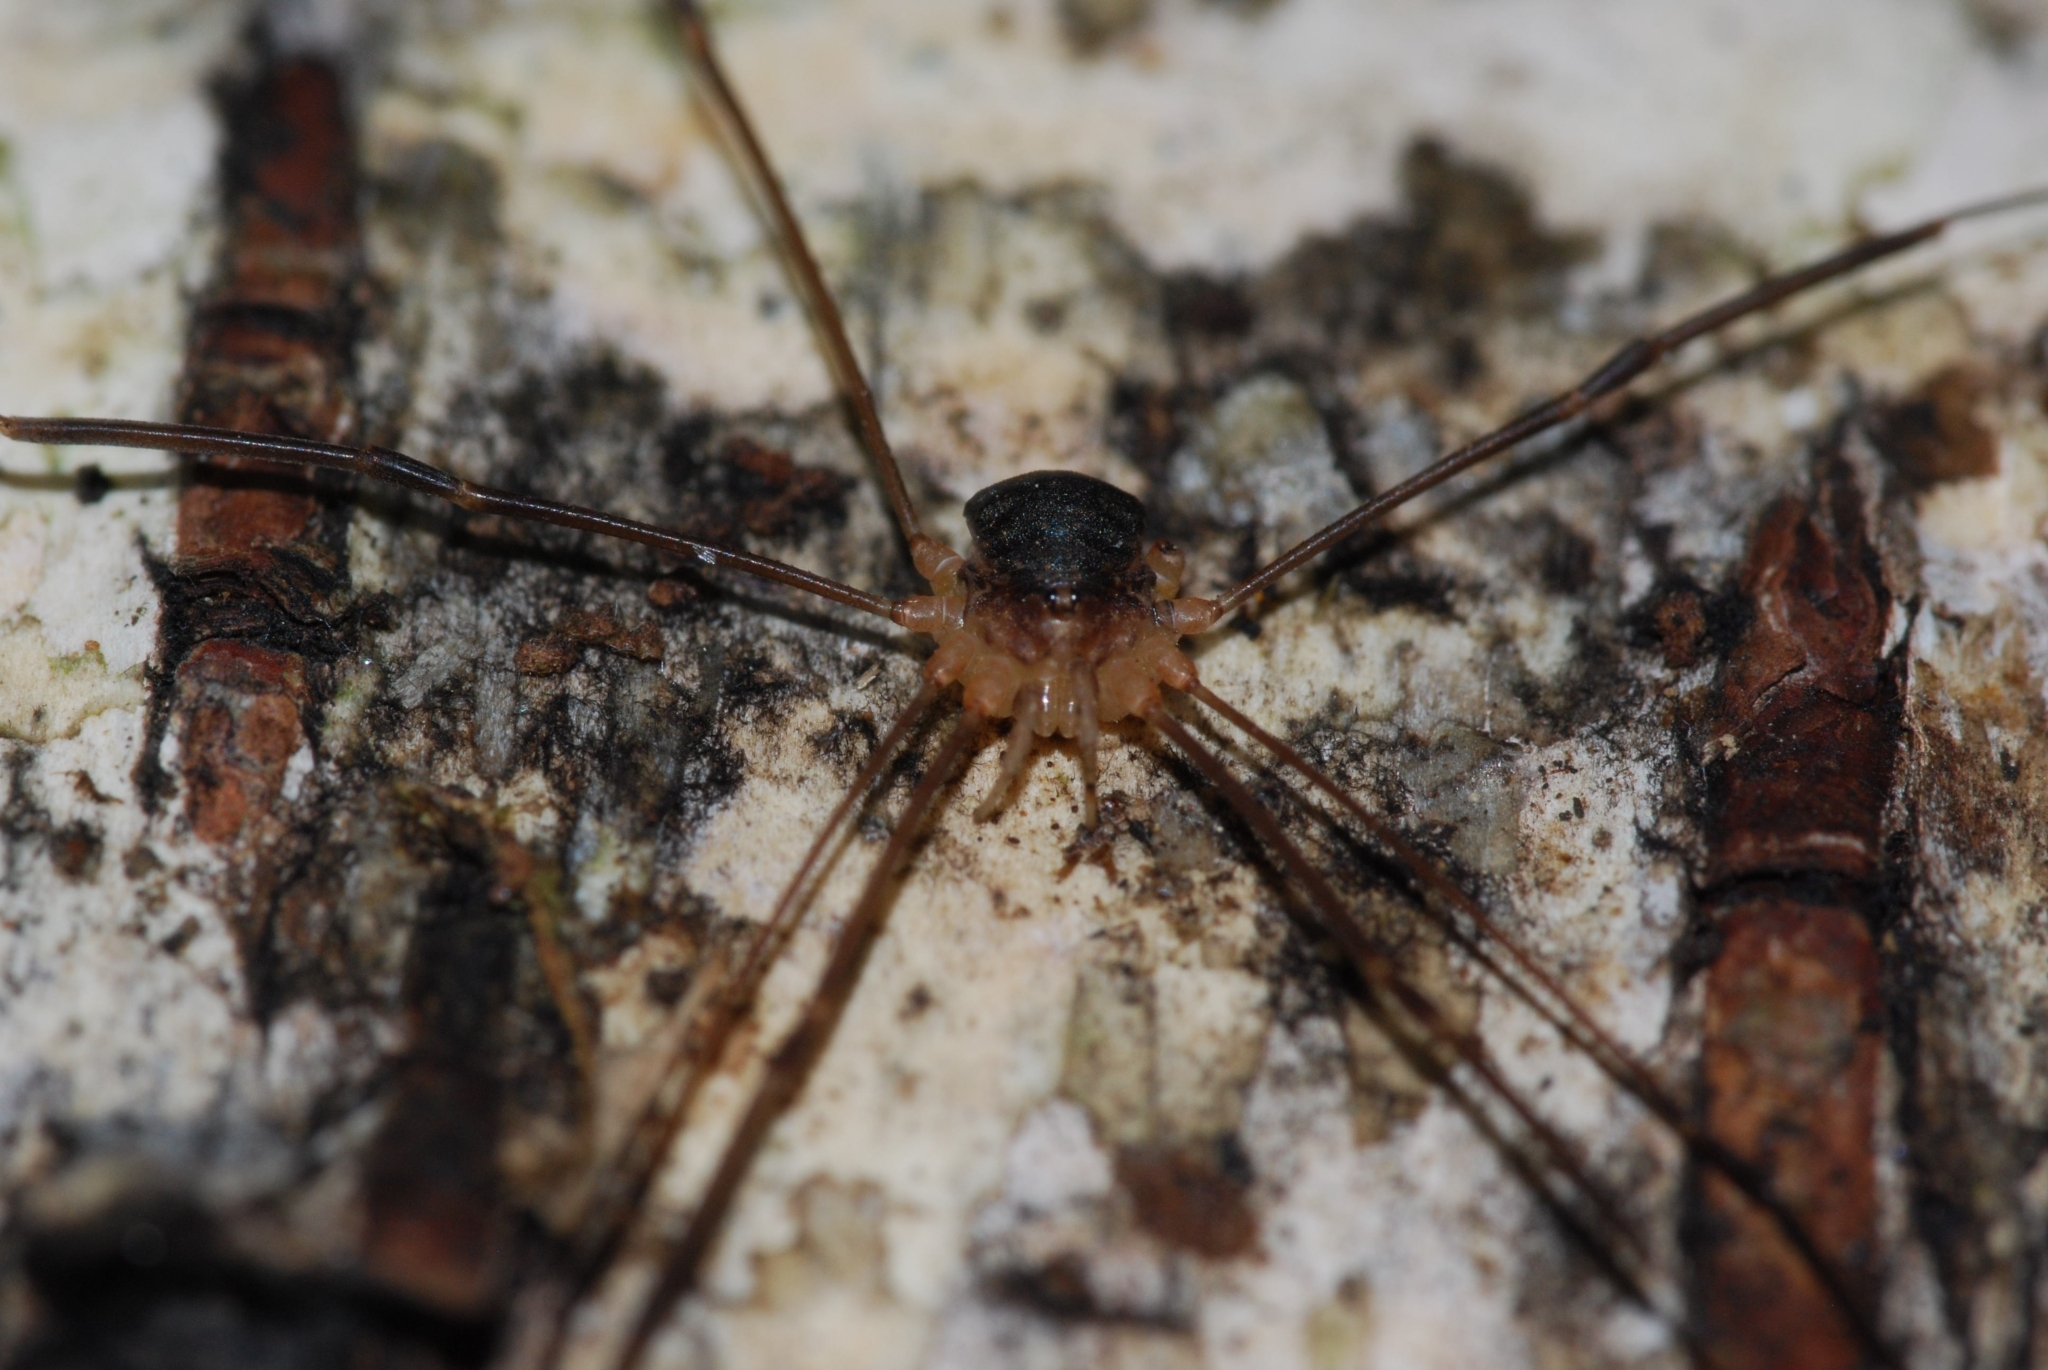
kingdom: Animalia
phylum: Arthropoda
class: Arachnida
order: Opiliones
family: Sclerosomatidae
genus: Nelima
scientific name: Nelima gothica
